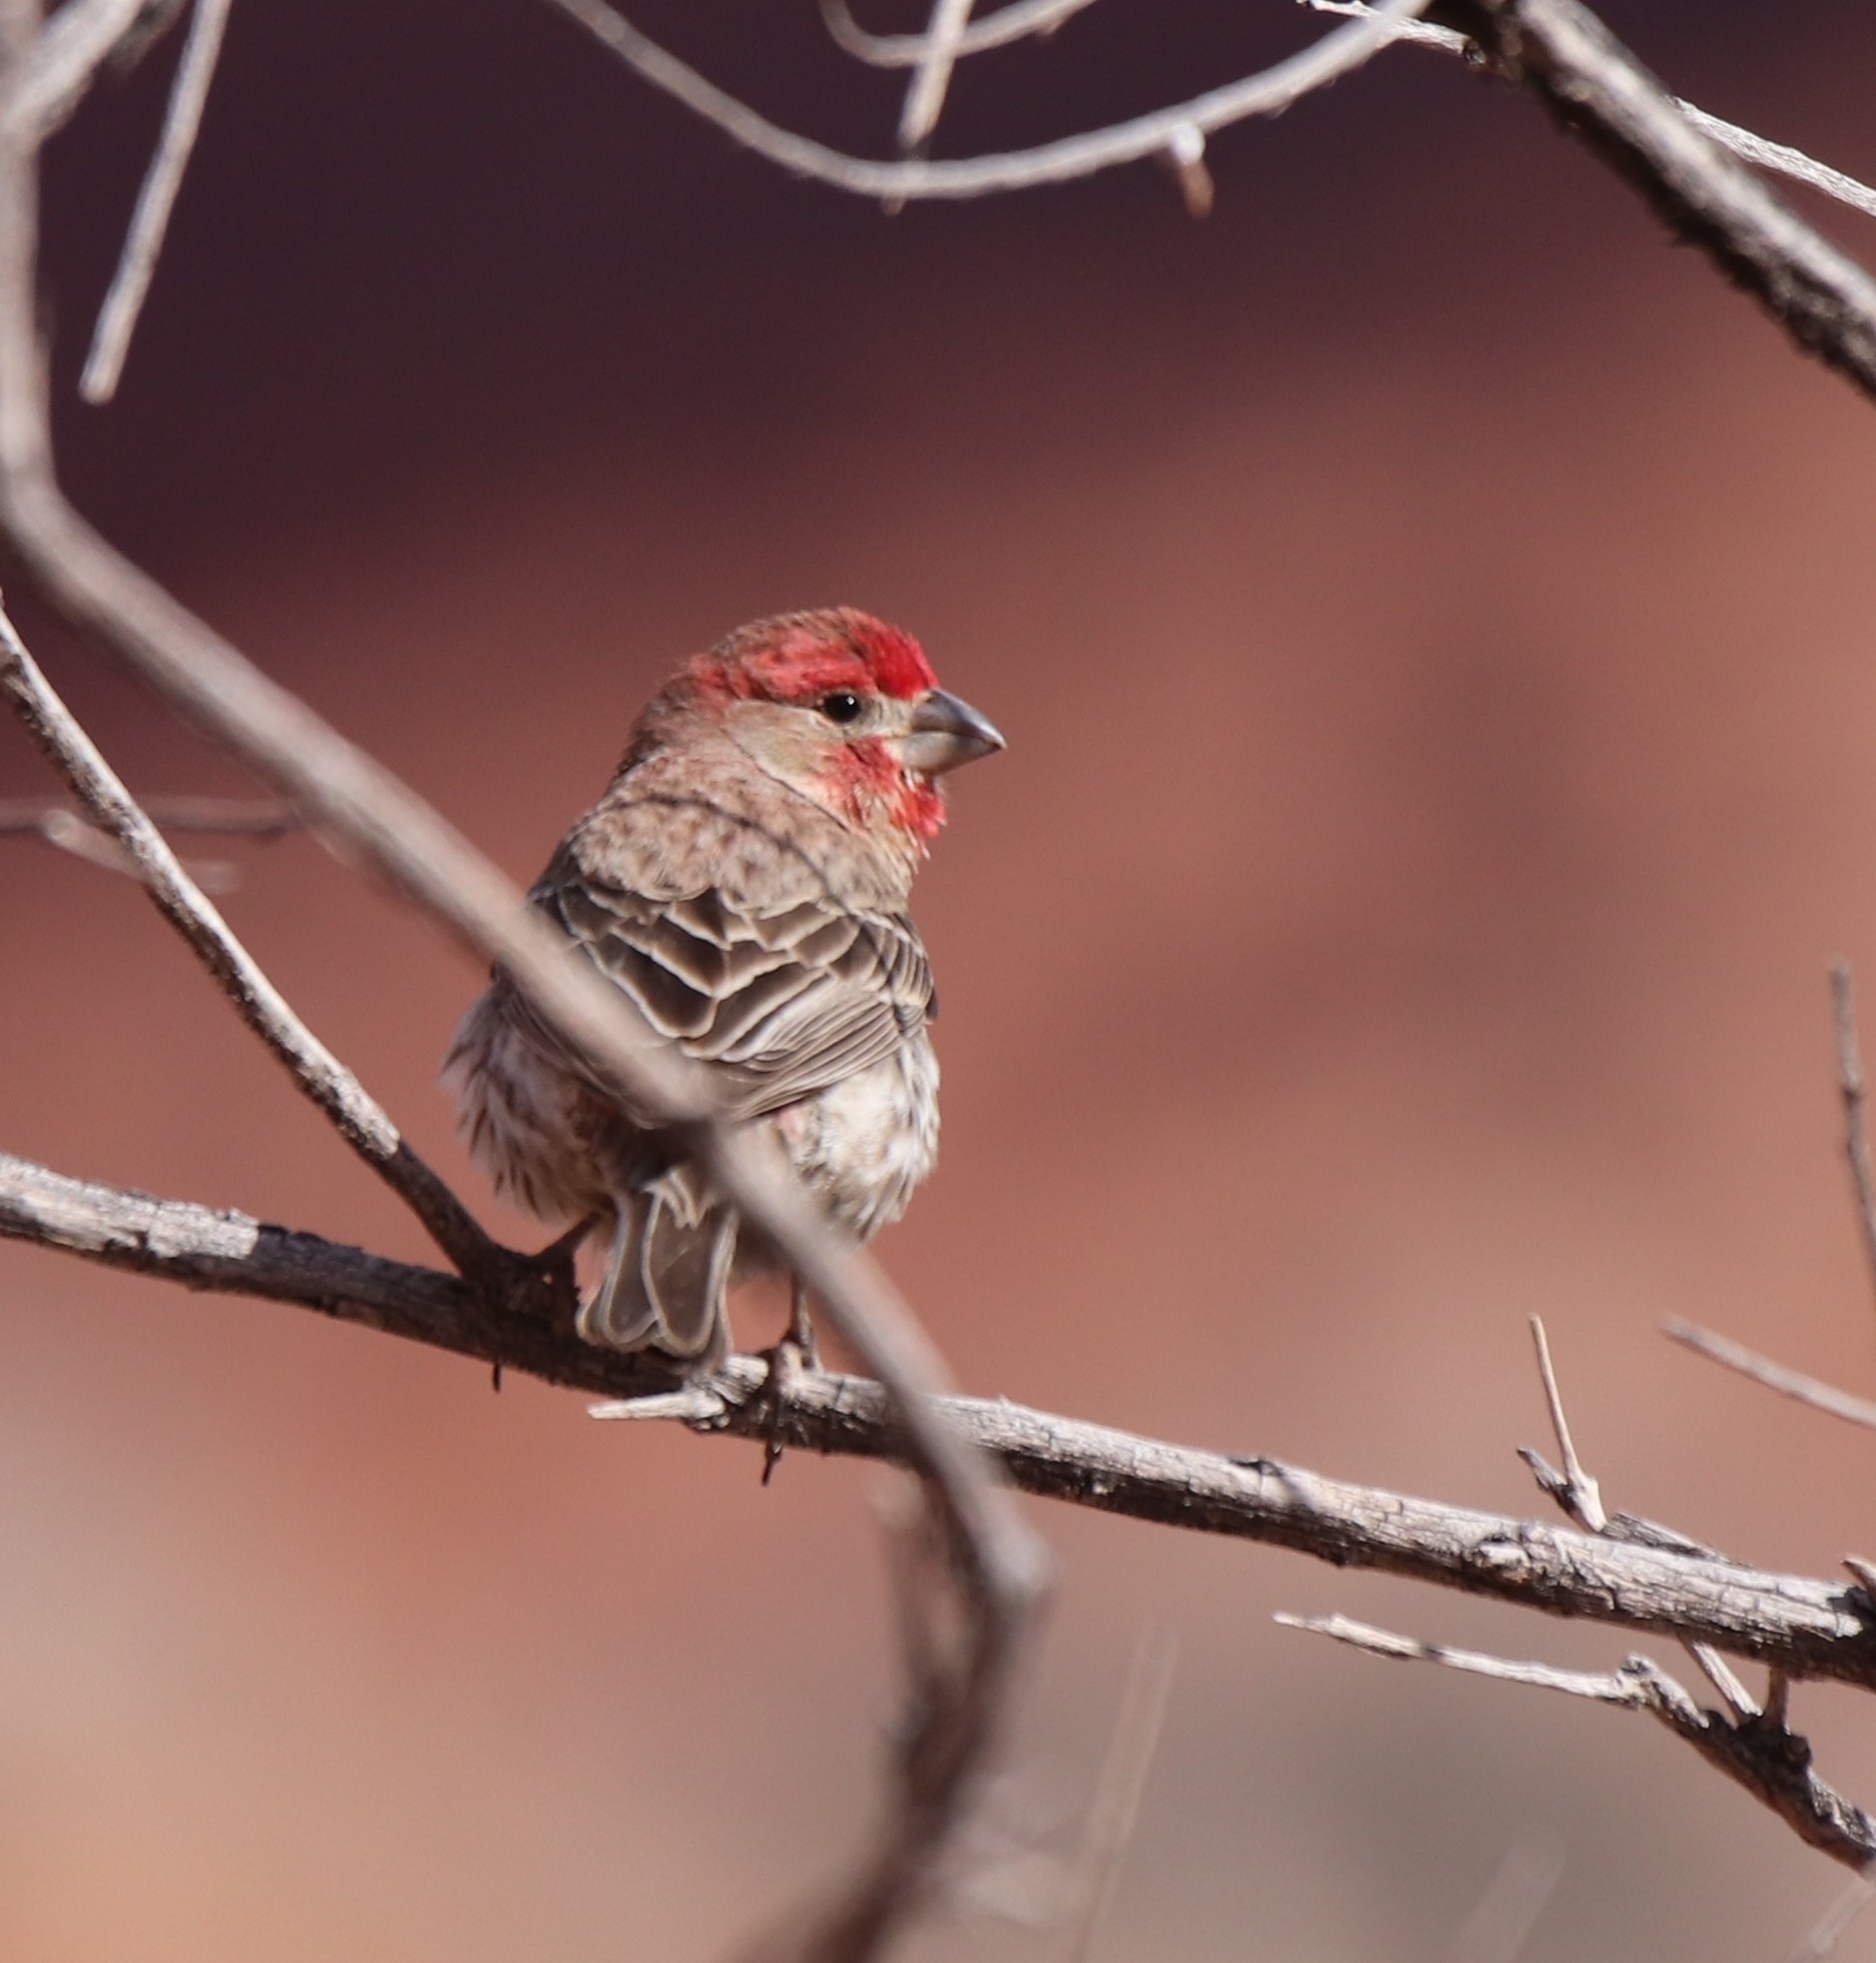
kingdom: Animalia
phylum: Chordata
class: Aves
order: Passeriformes
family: Fringillidae
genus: Haemorhous
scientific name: Haemorhous mexicanus
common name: House finch
